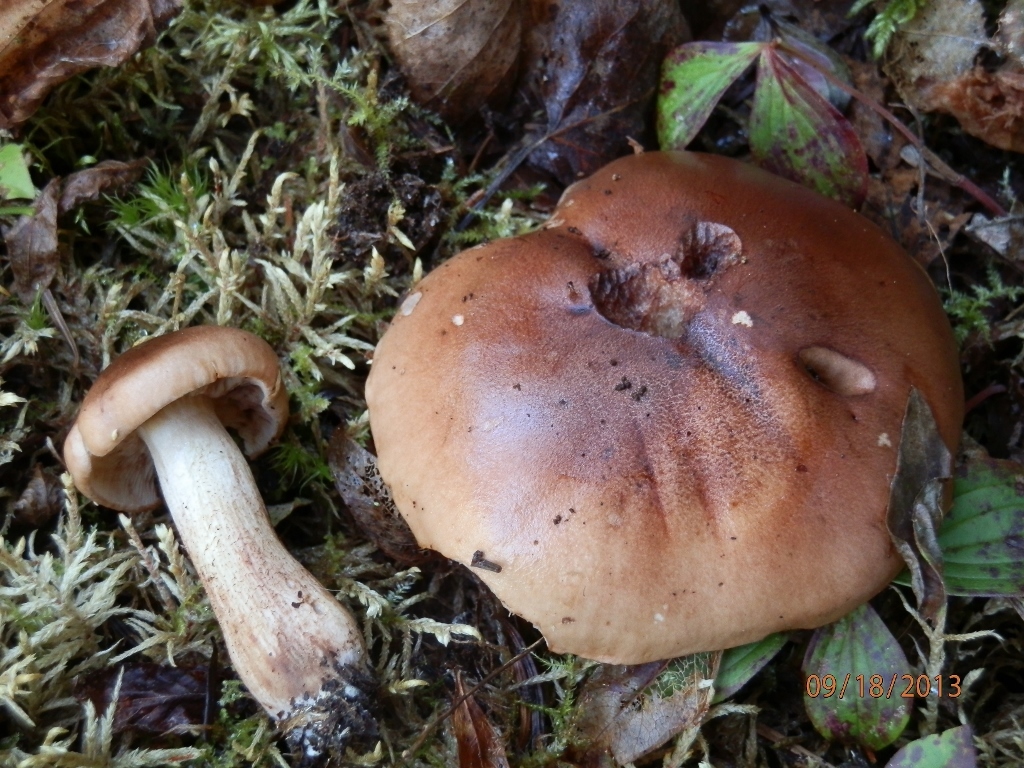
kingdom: Fungi
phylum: Basidiomycota
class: Agaricomycetes
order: Agaricales
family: Tricholomataceae
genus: Tricholoma
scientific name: Tricholoma fulvum
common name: Birch knight
